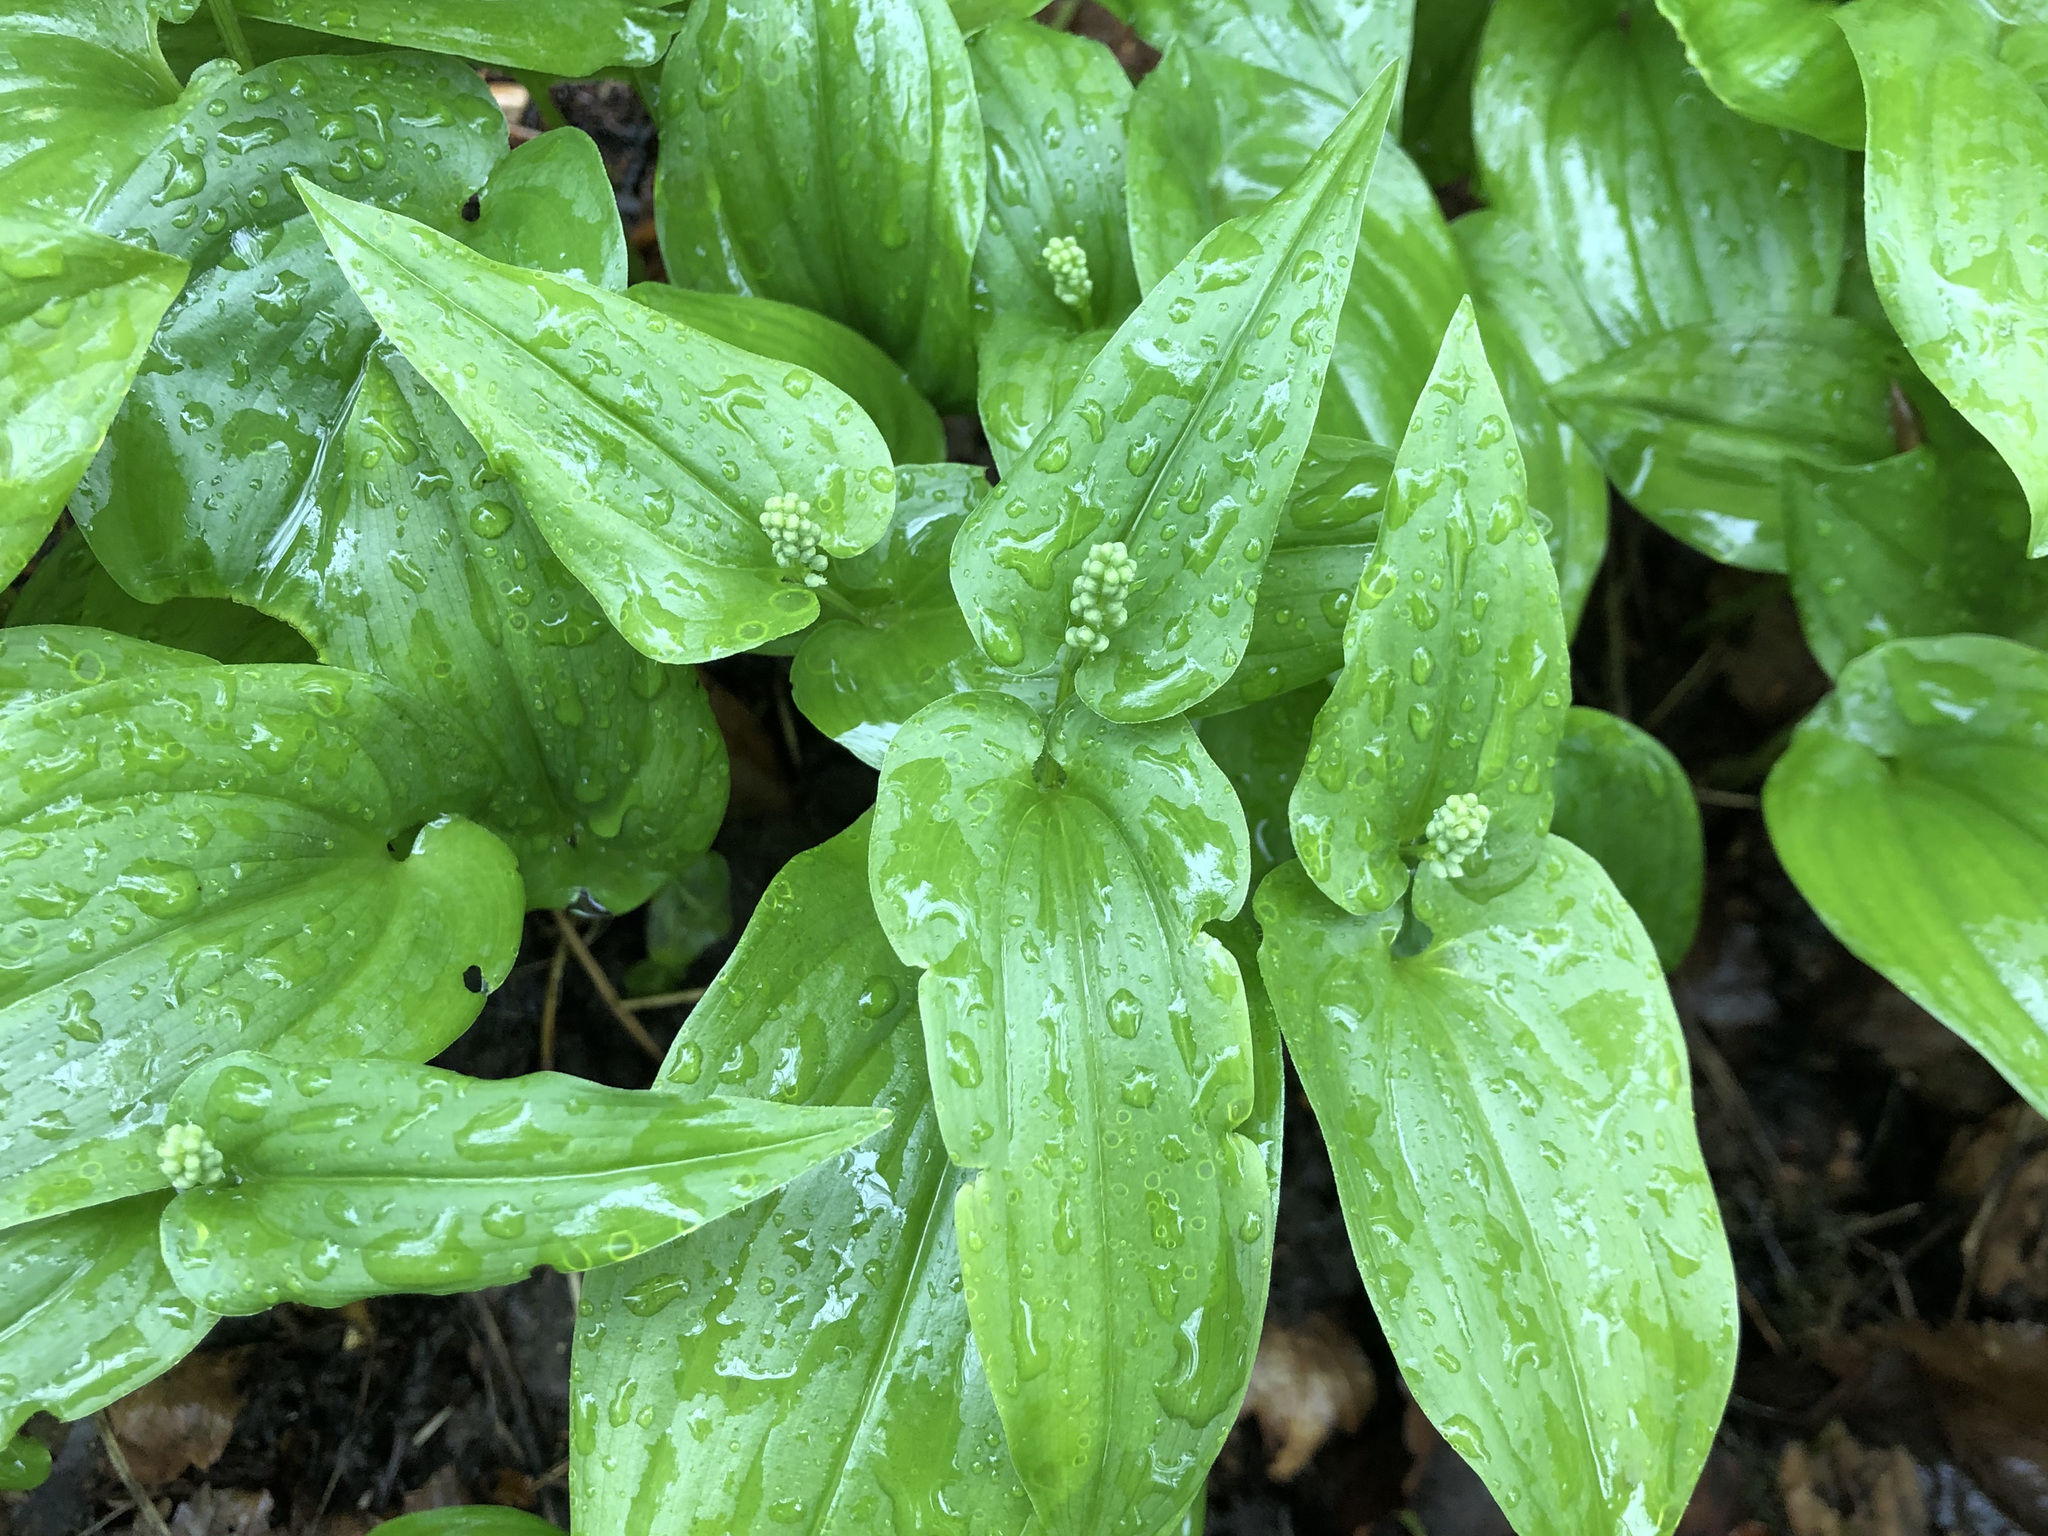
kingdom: Plantae
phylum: Tracheophyta
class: Liliopsida
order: Asparagales
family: Asparagaceae
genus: Maianthemum
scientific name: Maianthemum bifolium
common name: May lily
